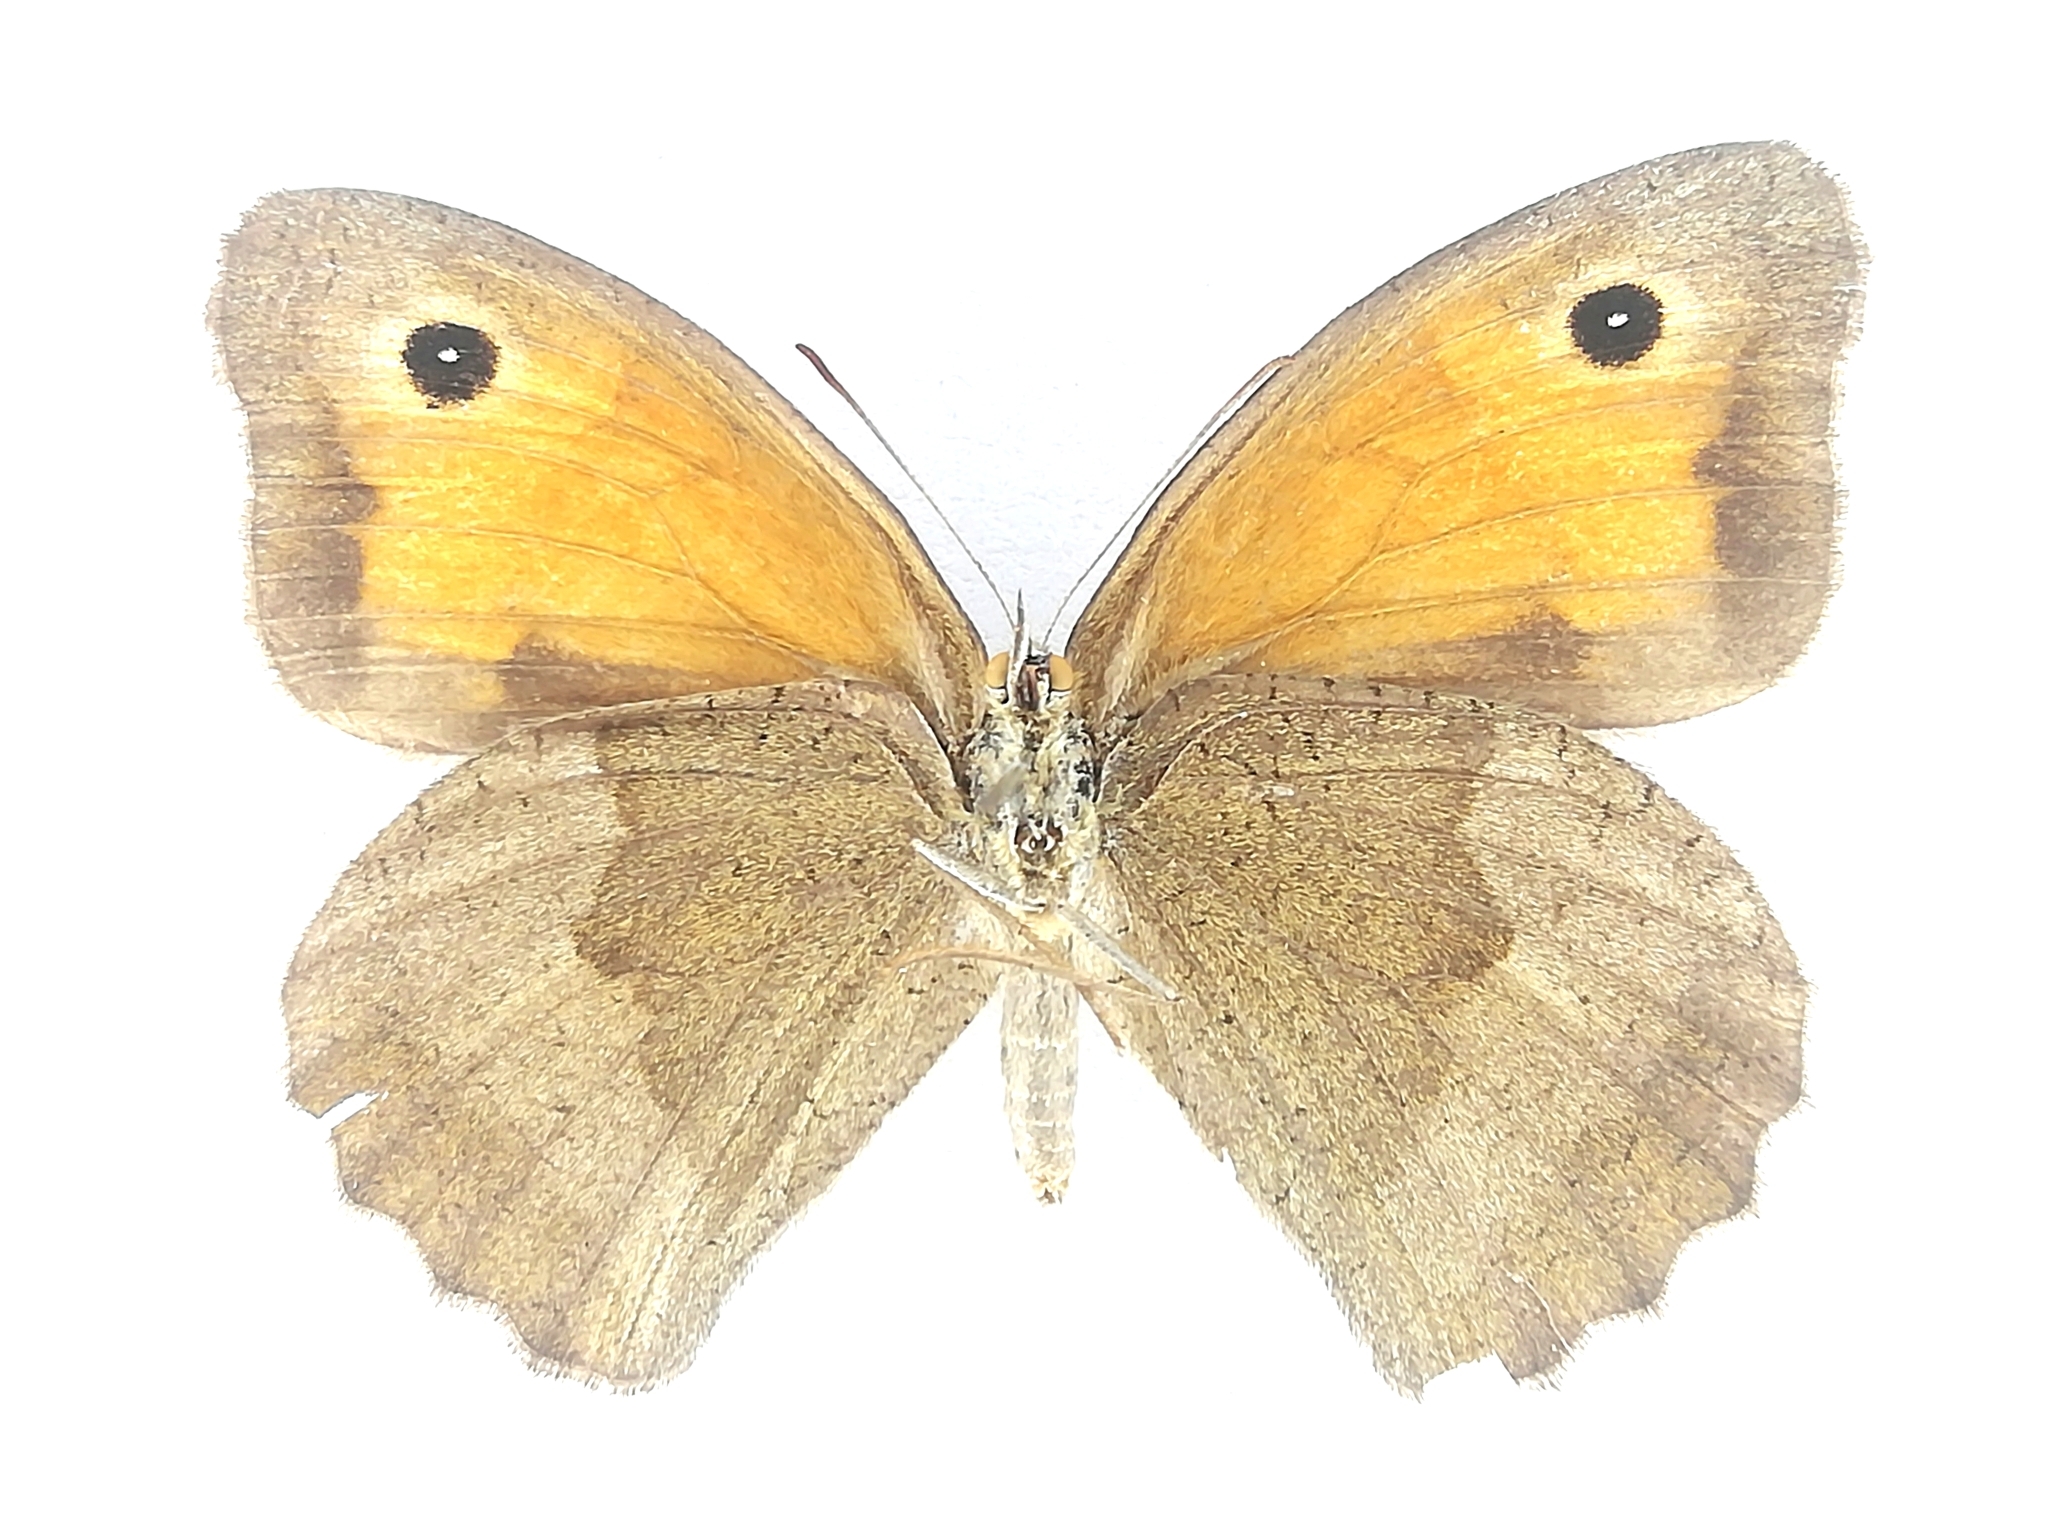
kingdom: Animalia
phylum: Arthropoda
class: Insecta
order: Lepidoptera
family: Nymphalidae
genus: Maniola
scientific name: Maniola jurtina
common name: Meadow brown
